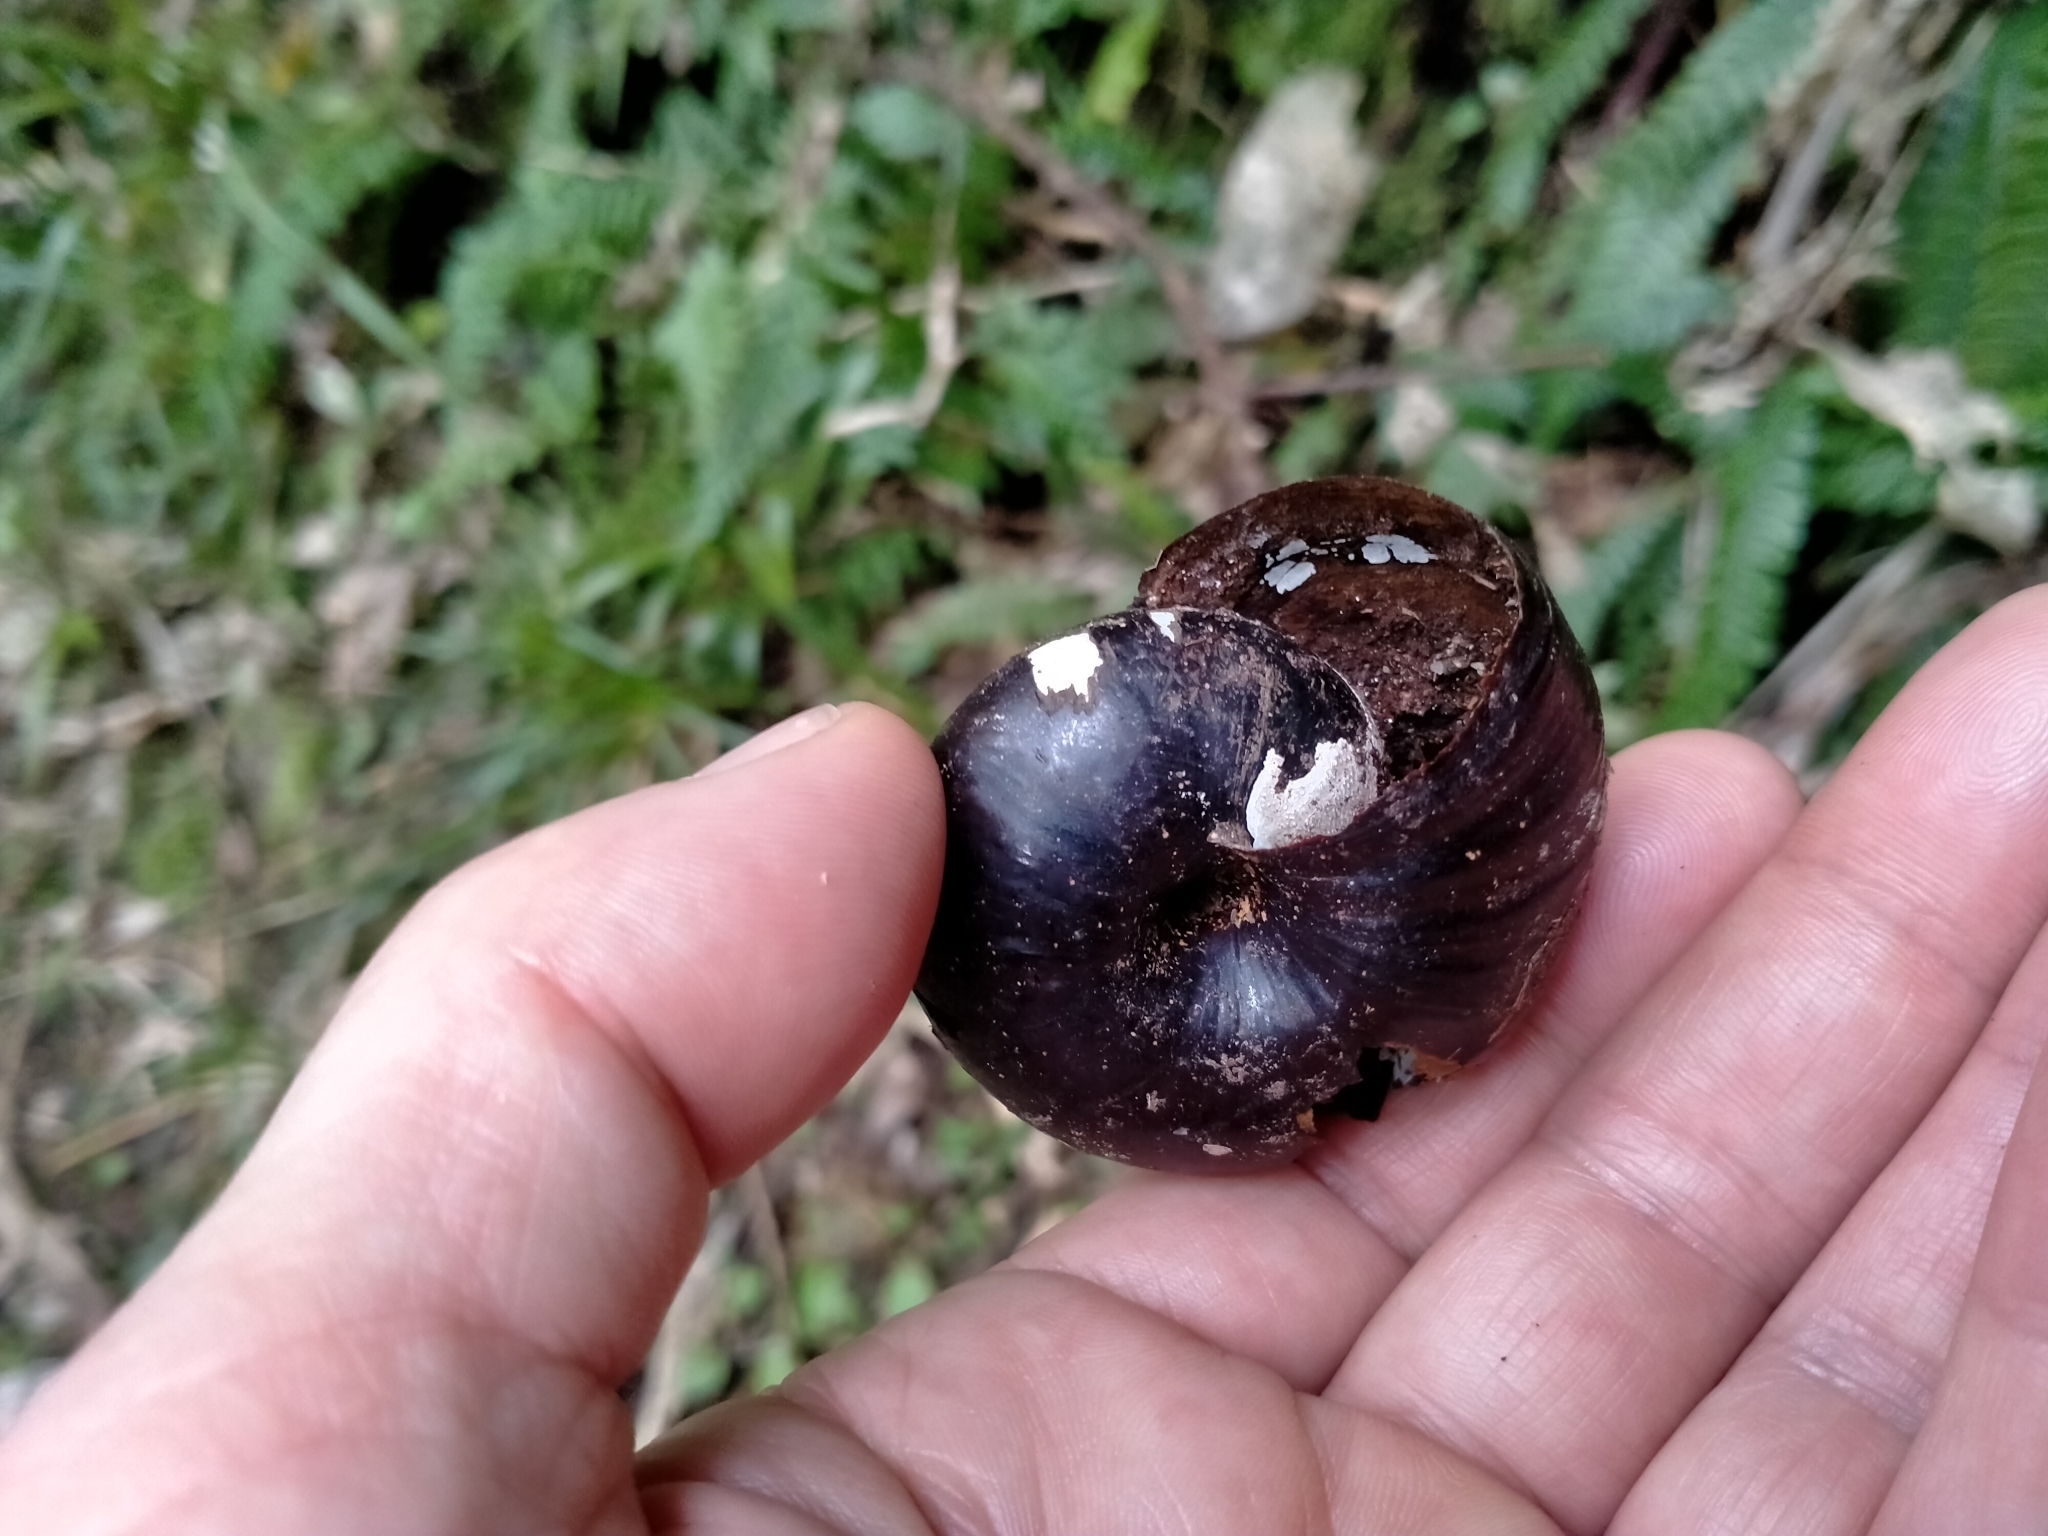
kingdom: Animalia
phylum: Mollusca
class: Gastropoda
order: Stylommatophora
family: Rhytididae
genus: Powelliphanta
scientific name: Powelliphanta annectens
